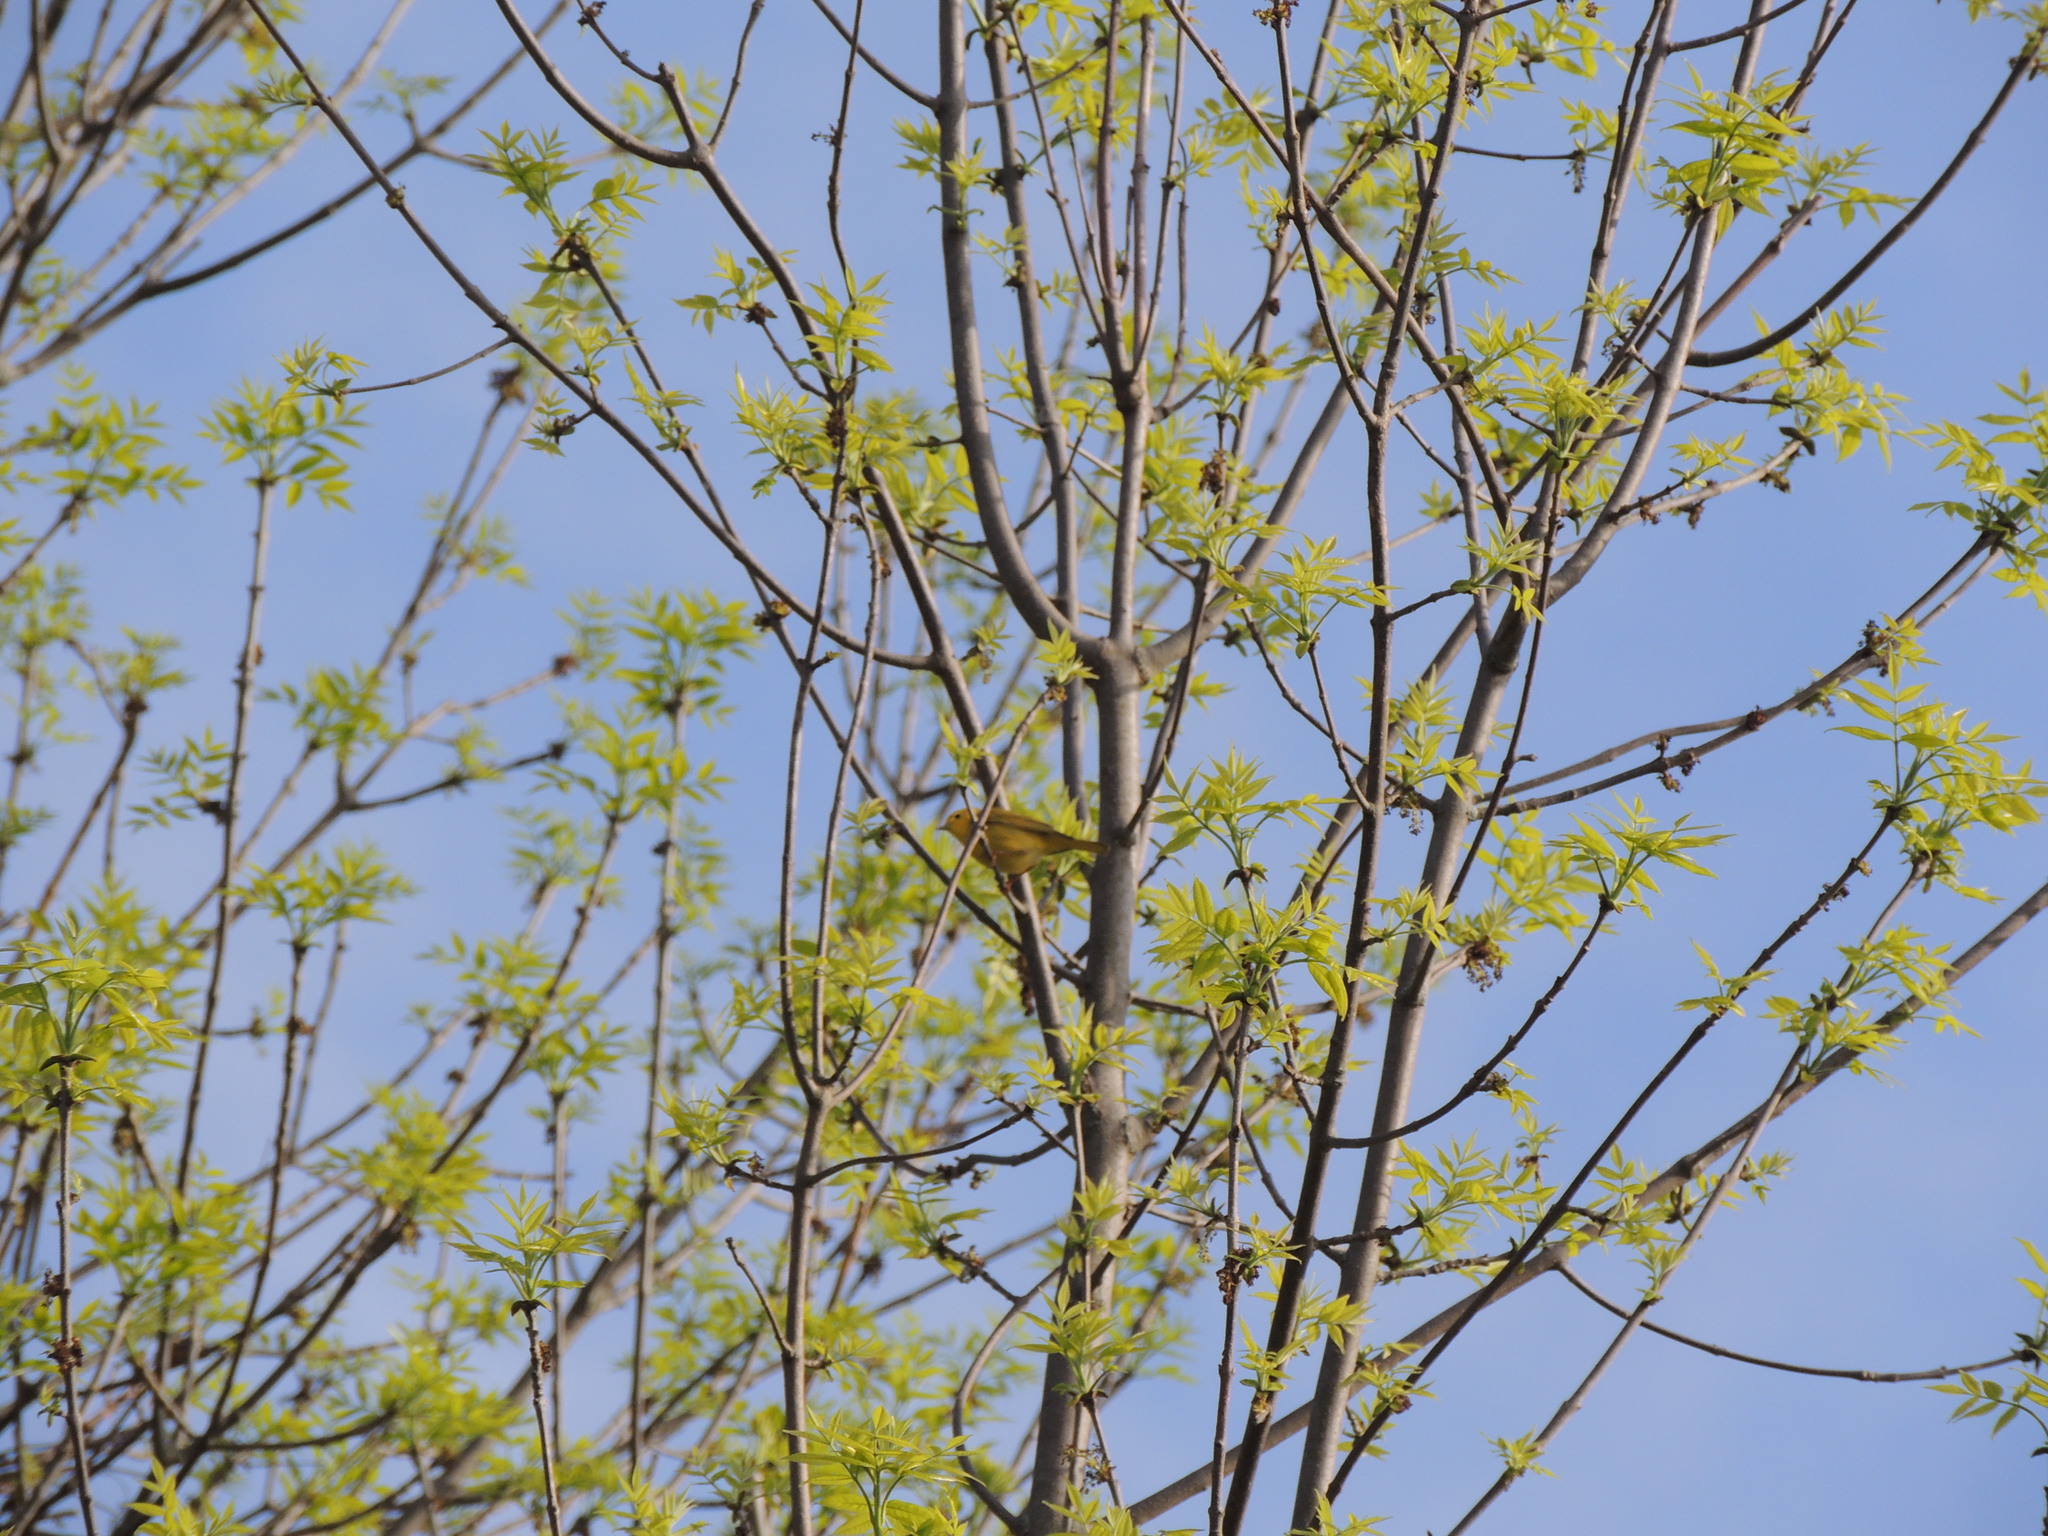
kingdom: Animalia
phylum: Chordata
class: Aves
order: Passeriformes
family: Parulidae
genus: Setophaga
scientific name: Setophaga petechia
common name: Yellow warbler
